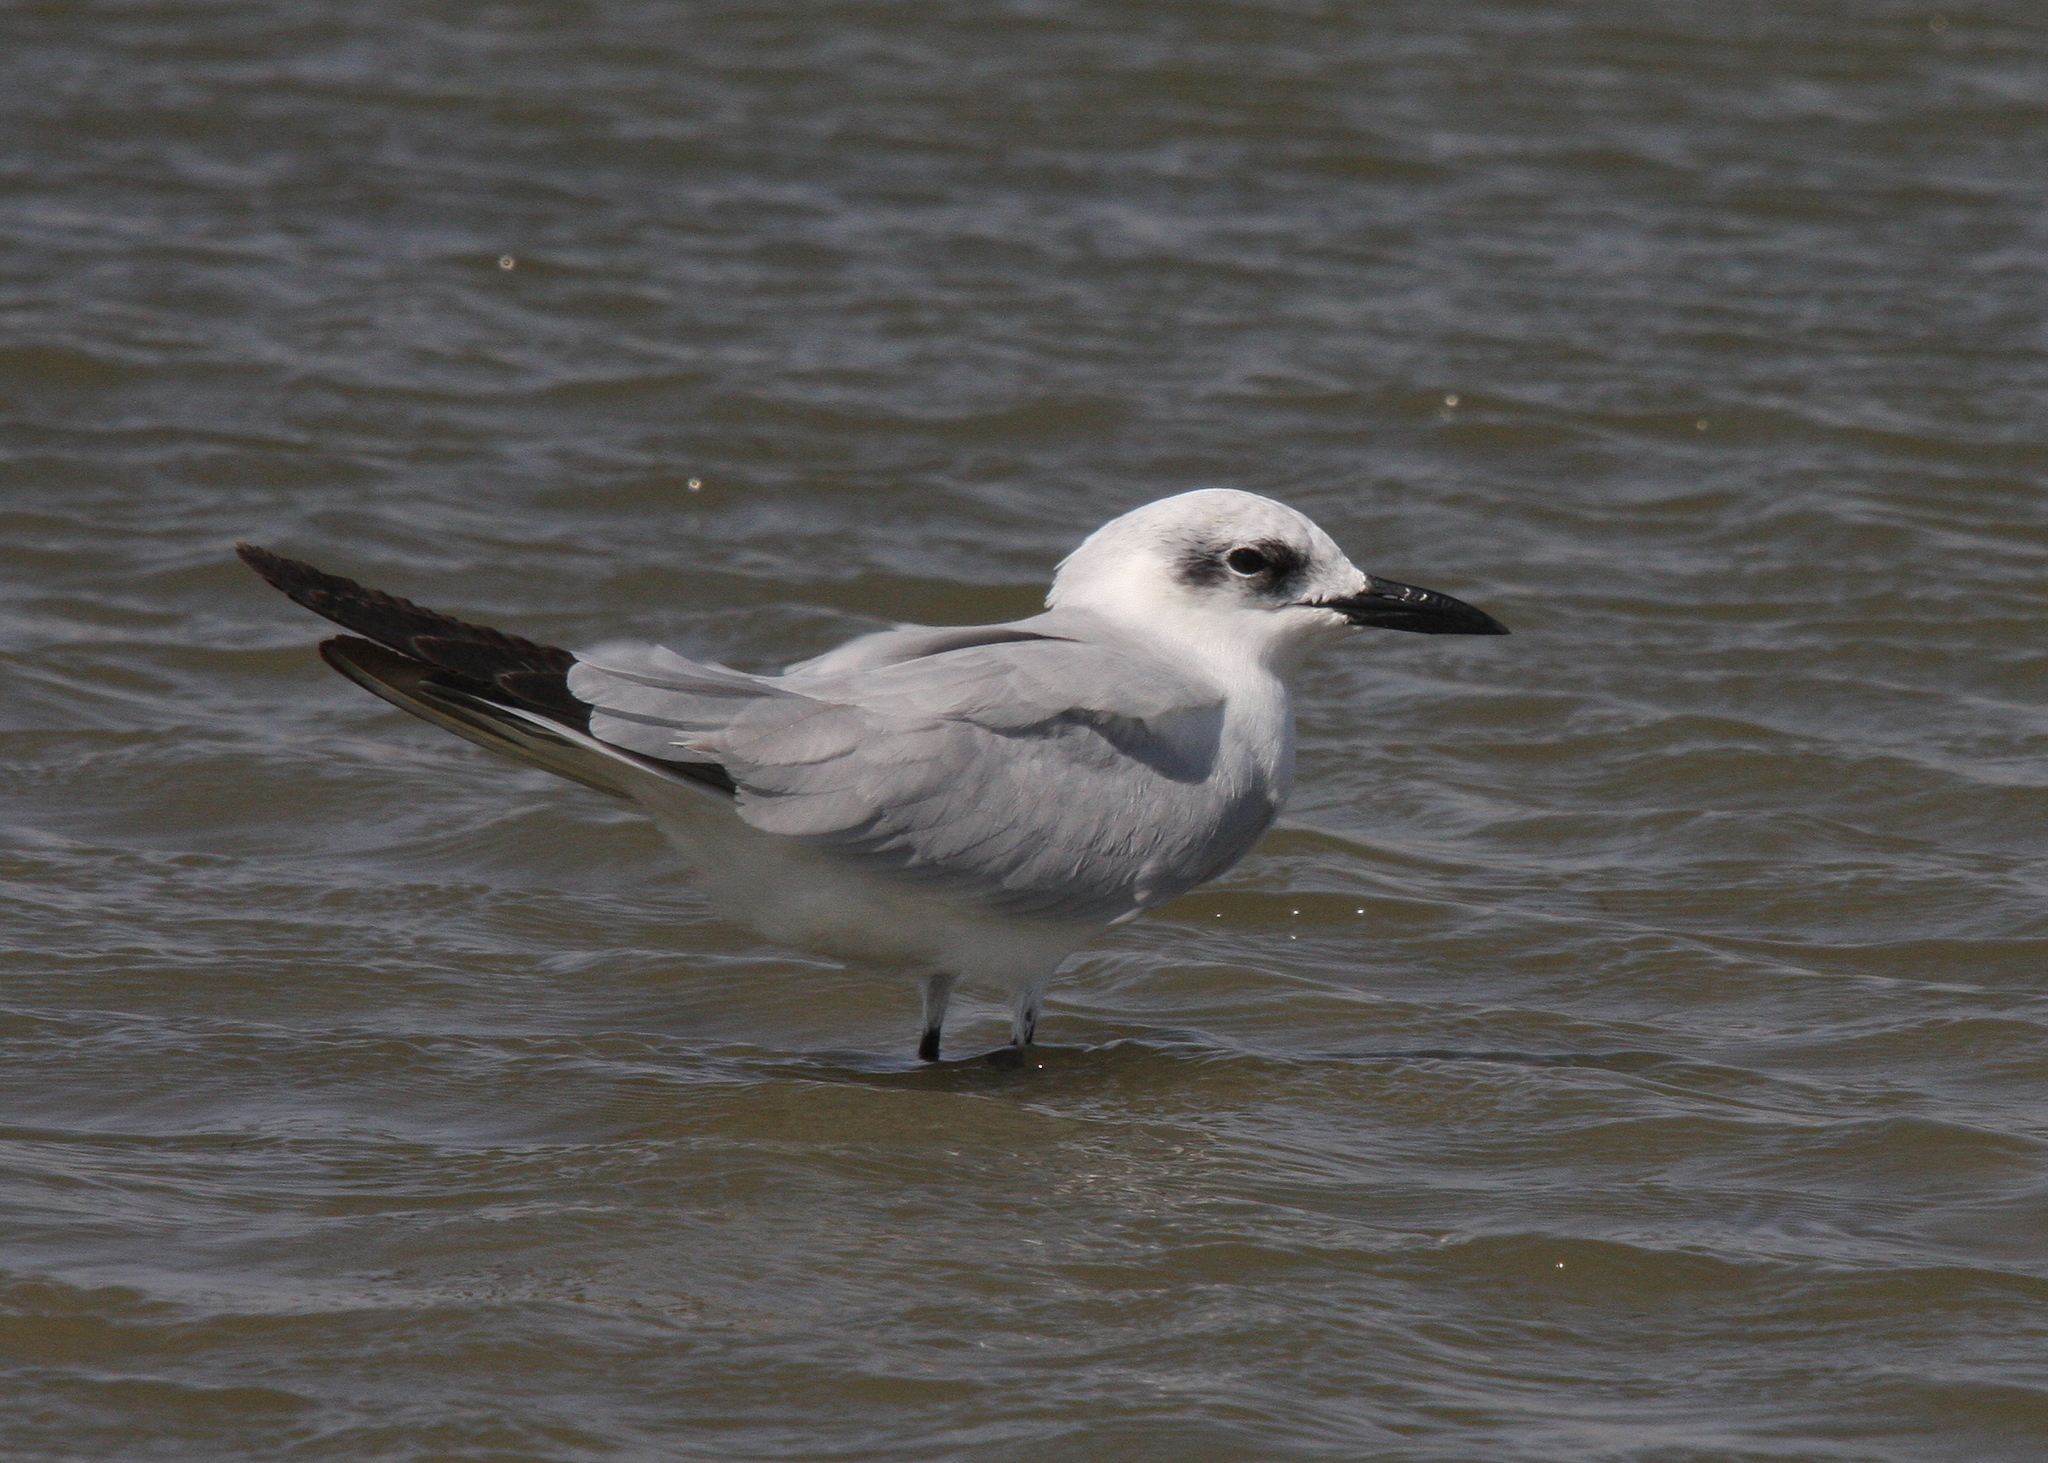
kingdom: Animalia
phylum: Chordata
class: Aves
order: Charadriiformes
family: Laridae
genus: Gelochelidon
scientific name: Gelochelidon nilotica
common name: Gull-billed tern
